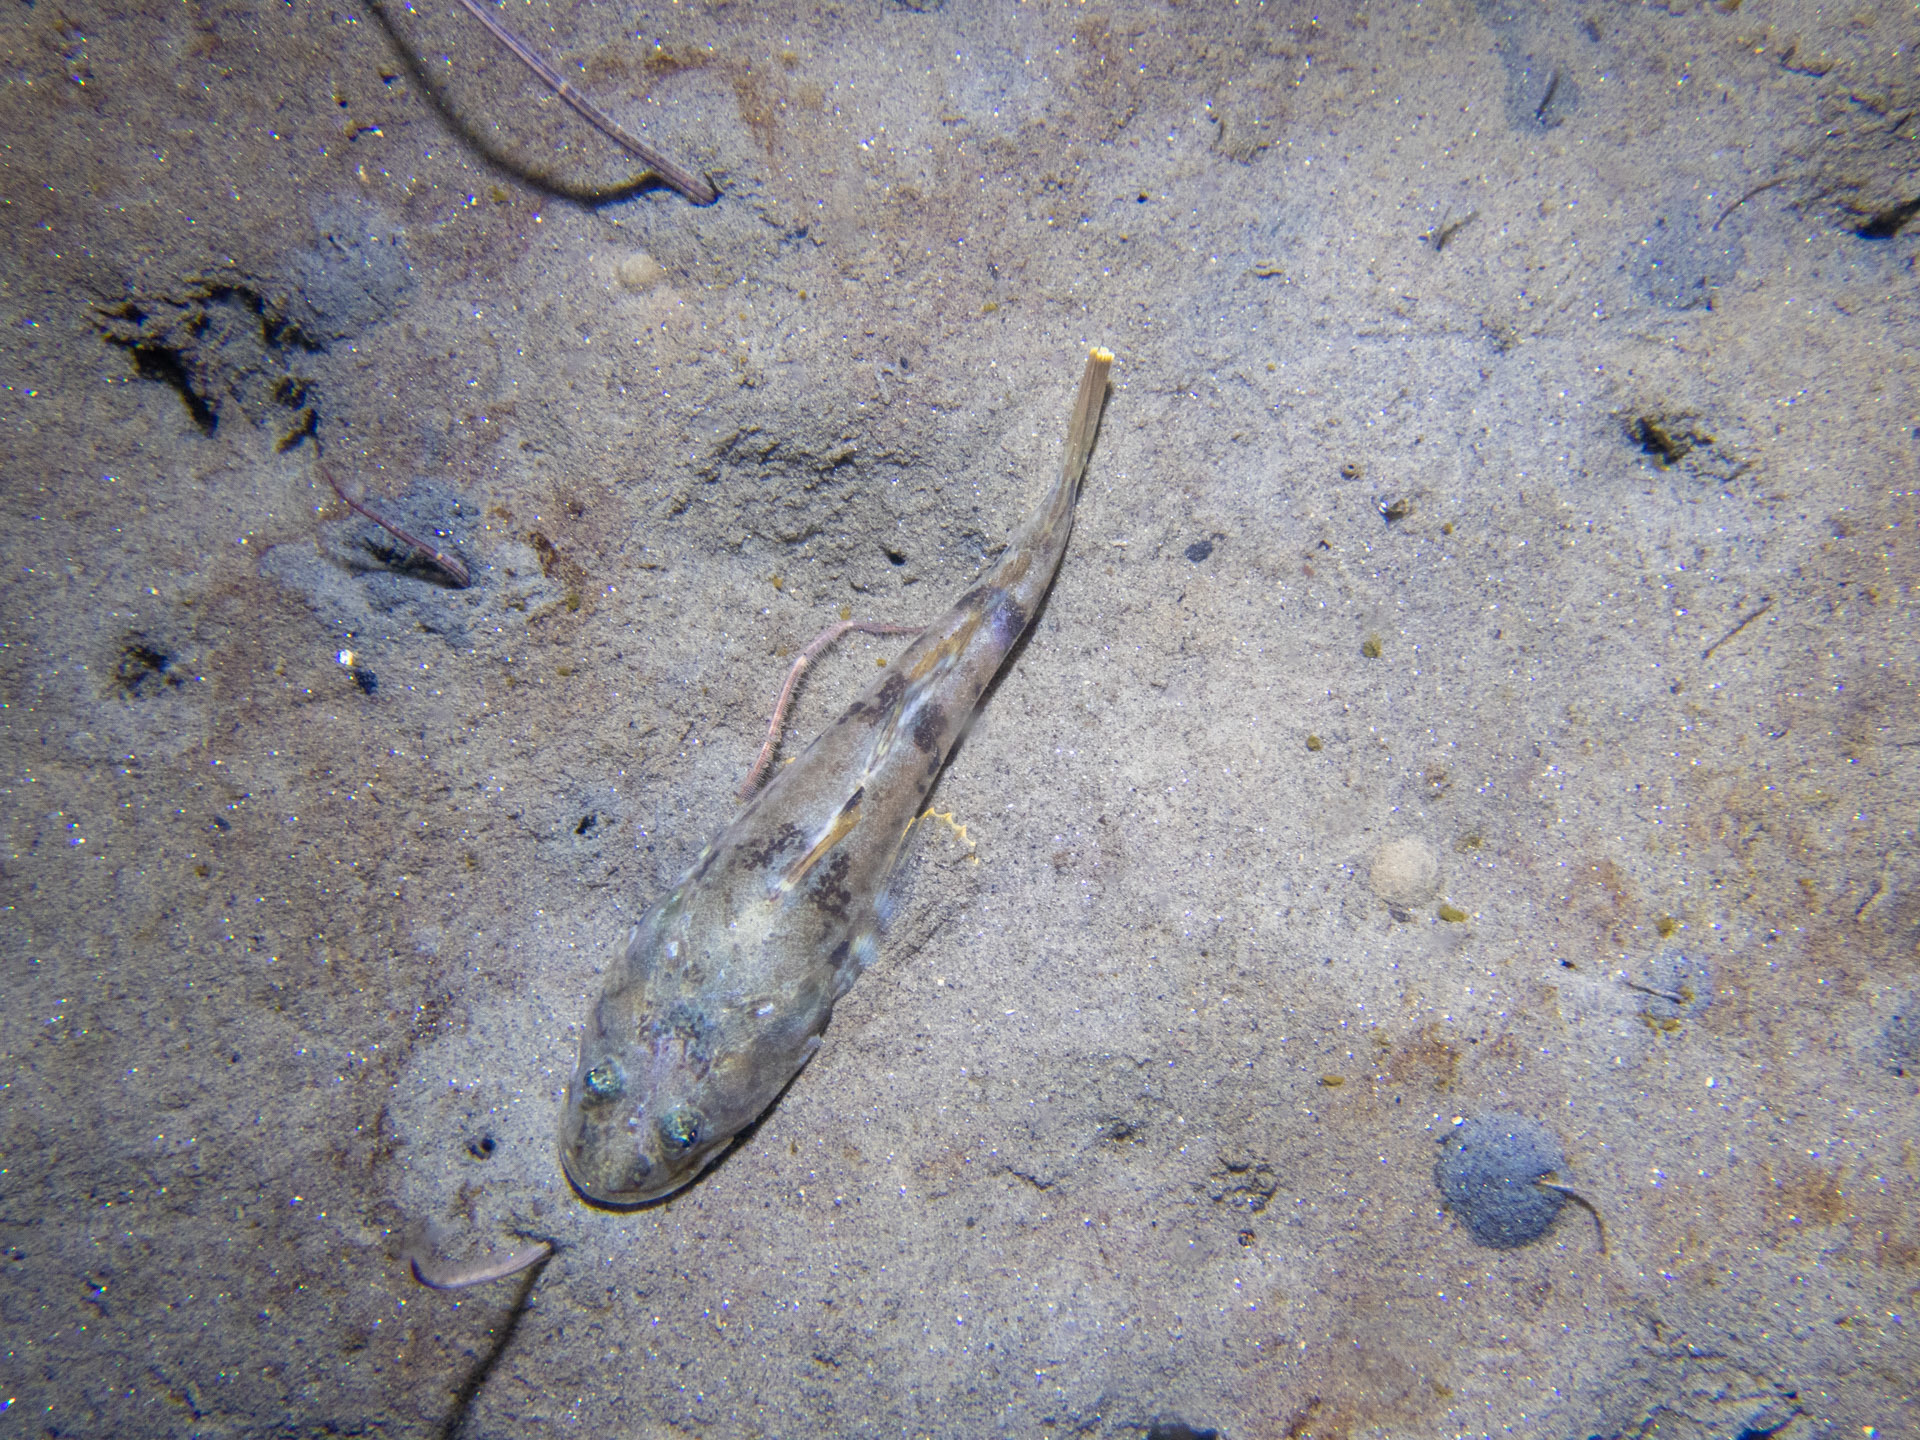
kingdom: Animalia
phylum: Chordata
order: Scorpaeniformes
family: Cottidae
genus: Leptocottus
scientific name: Leptocottus armatus
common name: Pacific staghorn sculpin
